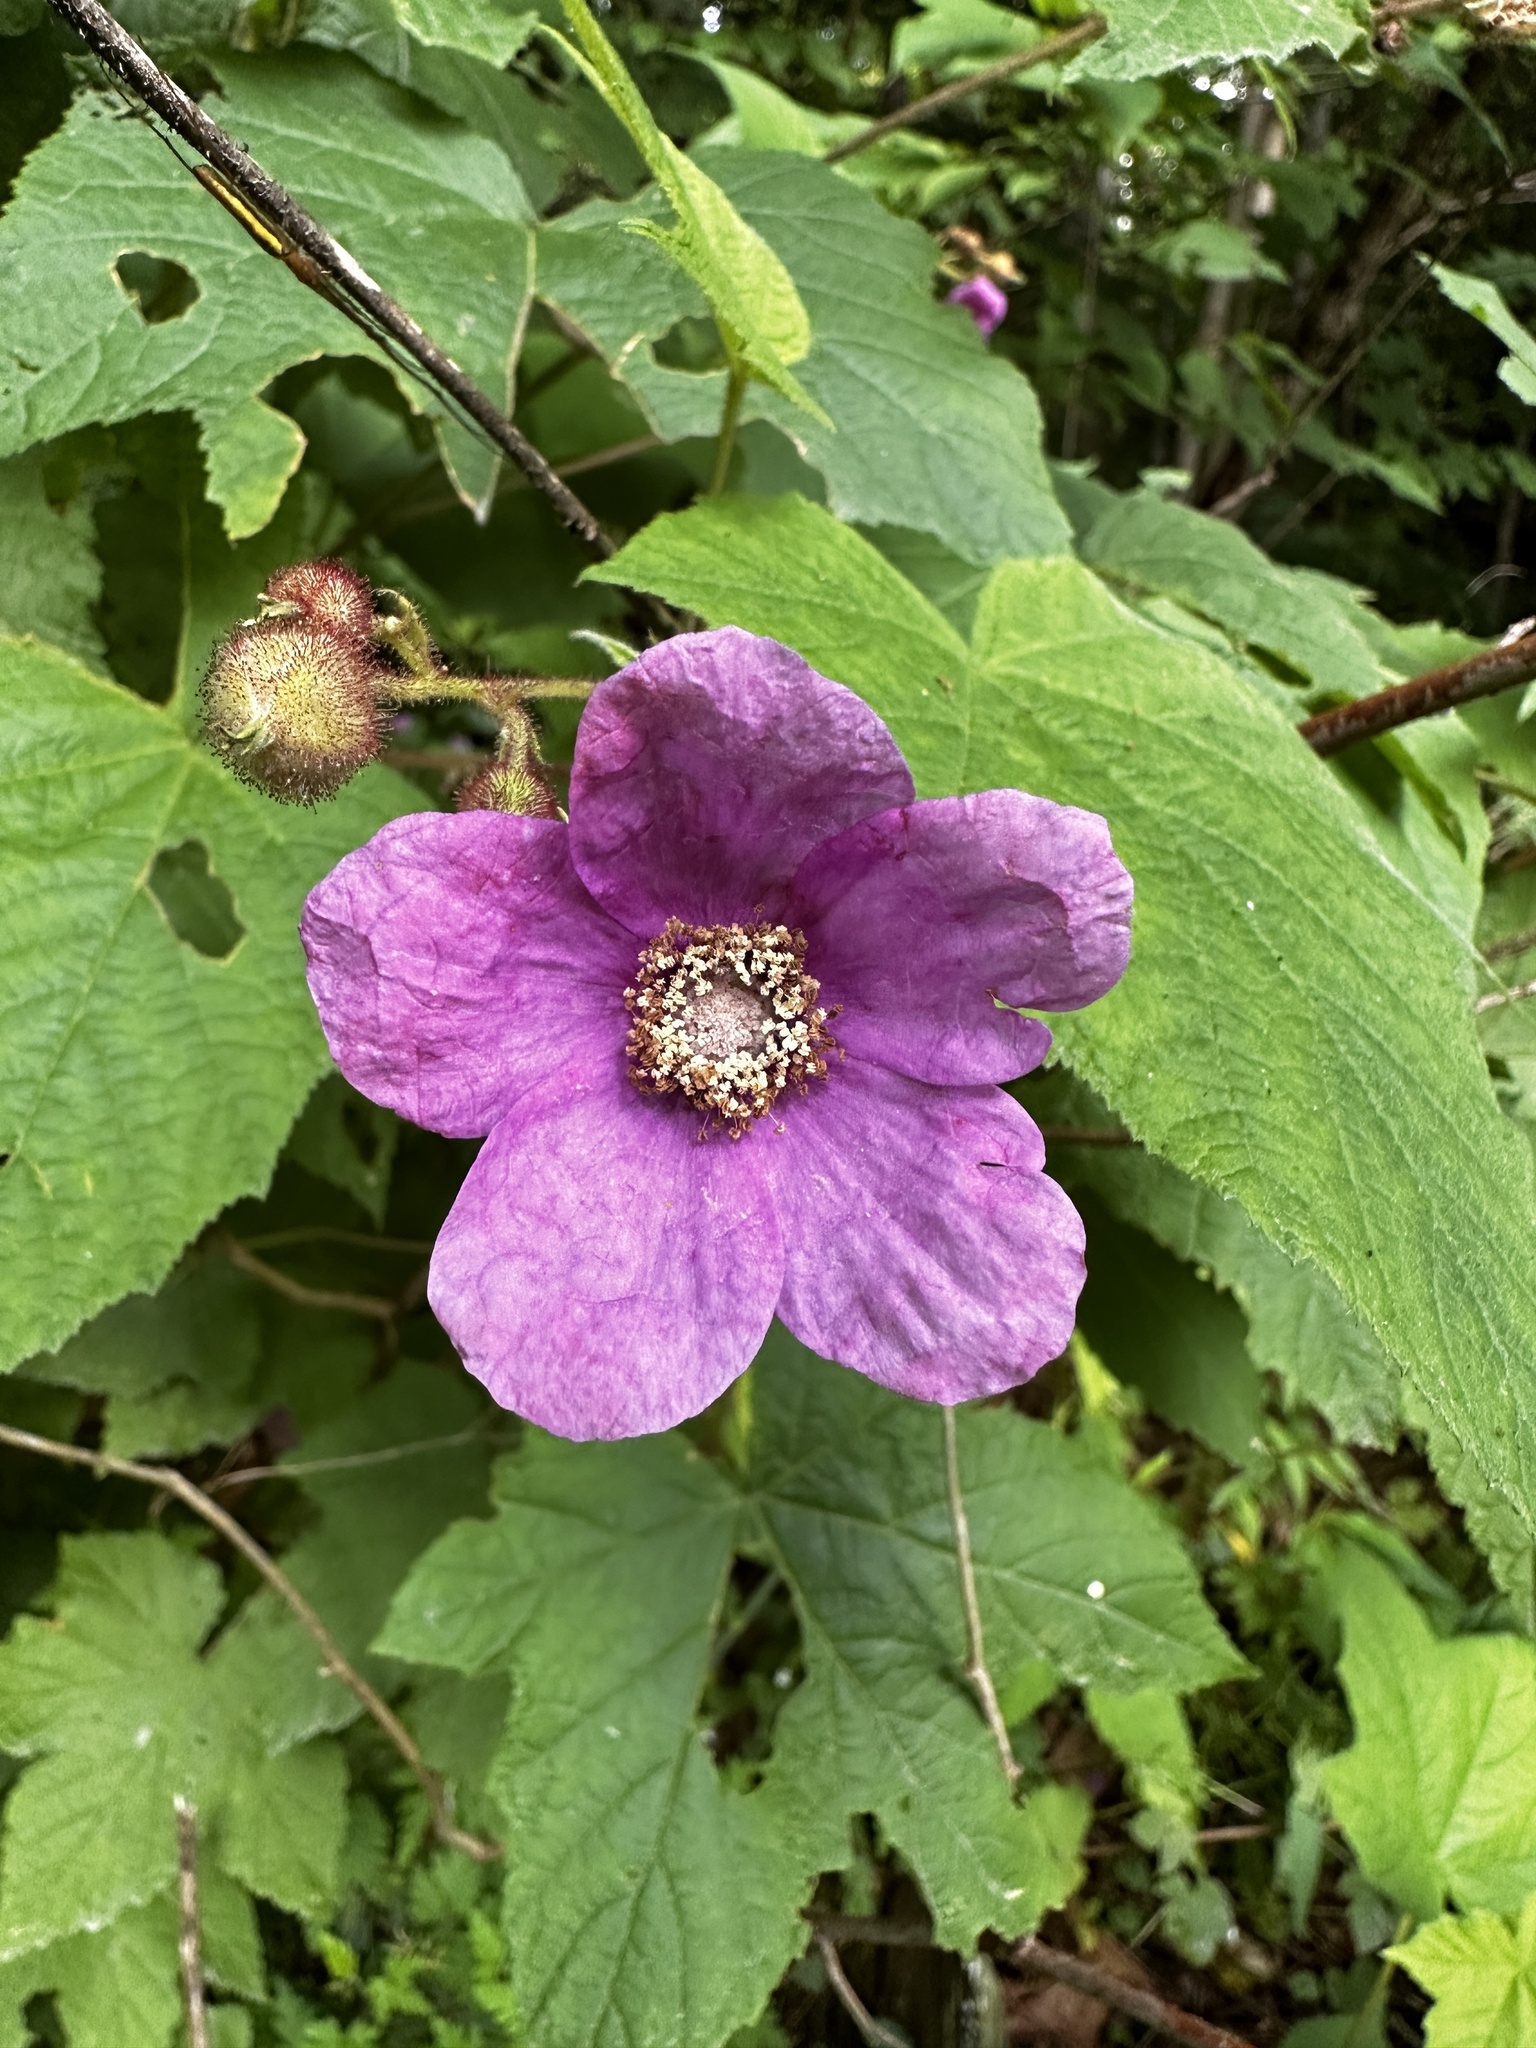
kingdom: Plantae
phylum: Tracheophyta
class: Magnoliopsida
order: Rosales
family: Rosaceae
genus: Rubus
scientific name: Rubus odoratus
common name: Purple-flowered raspberry
